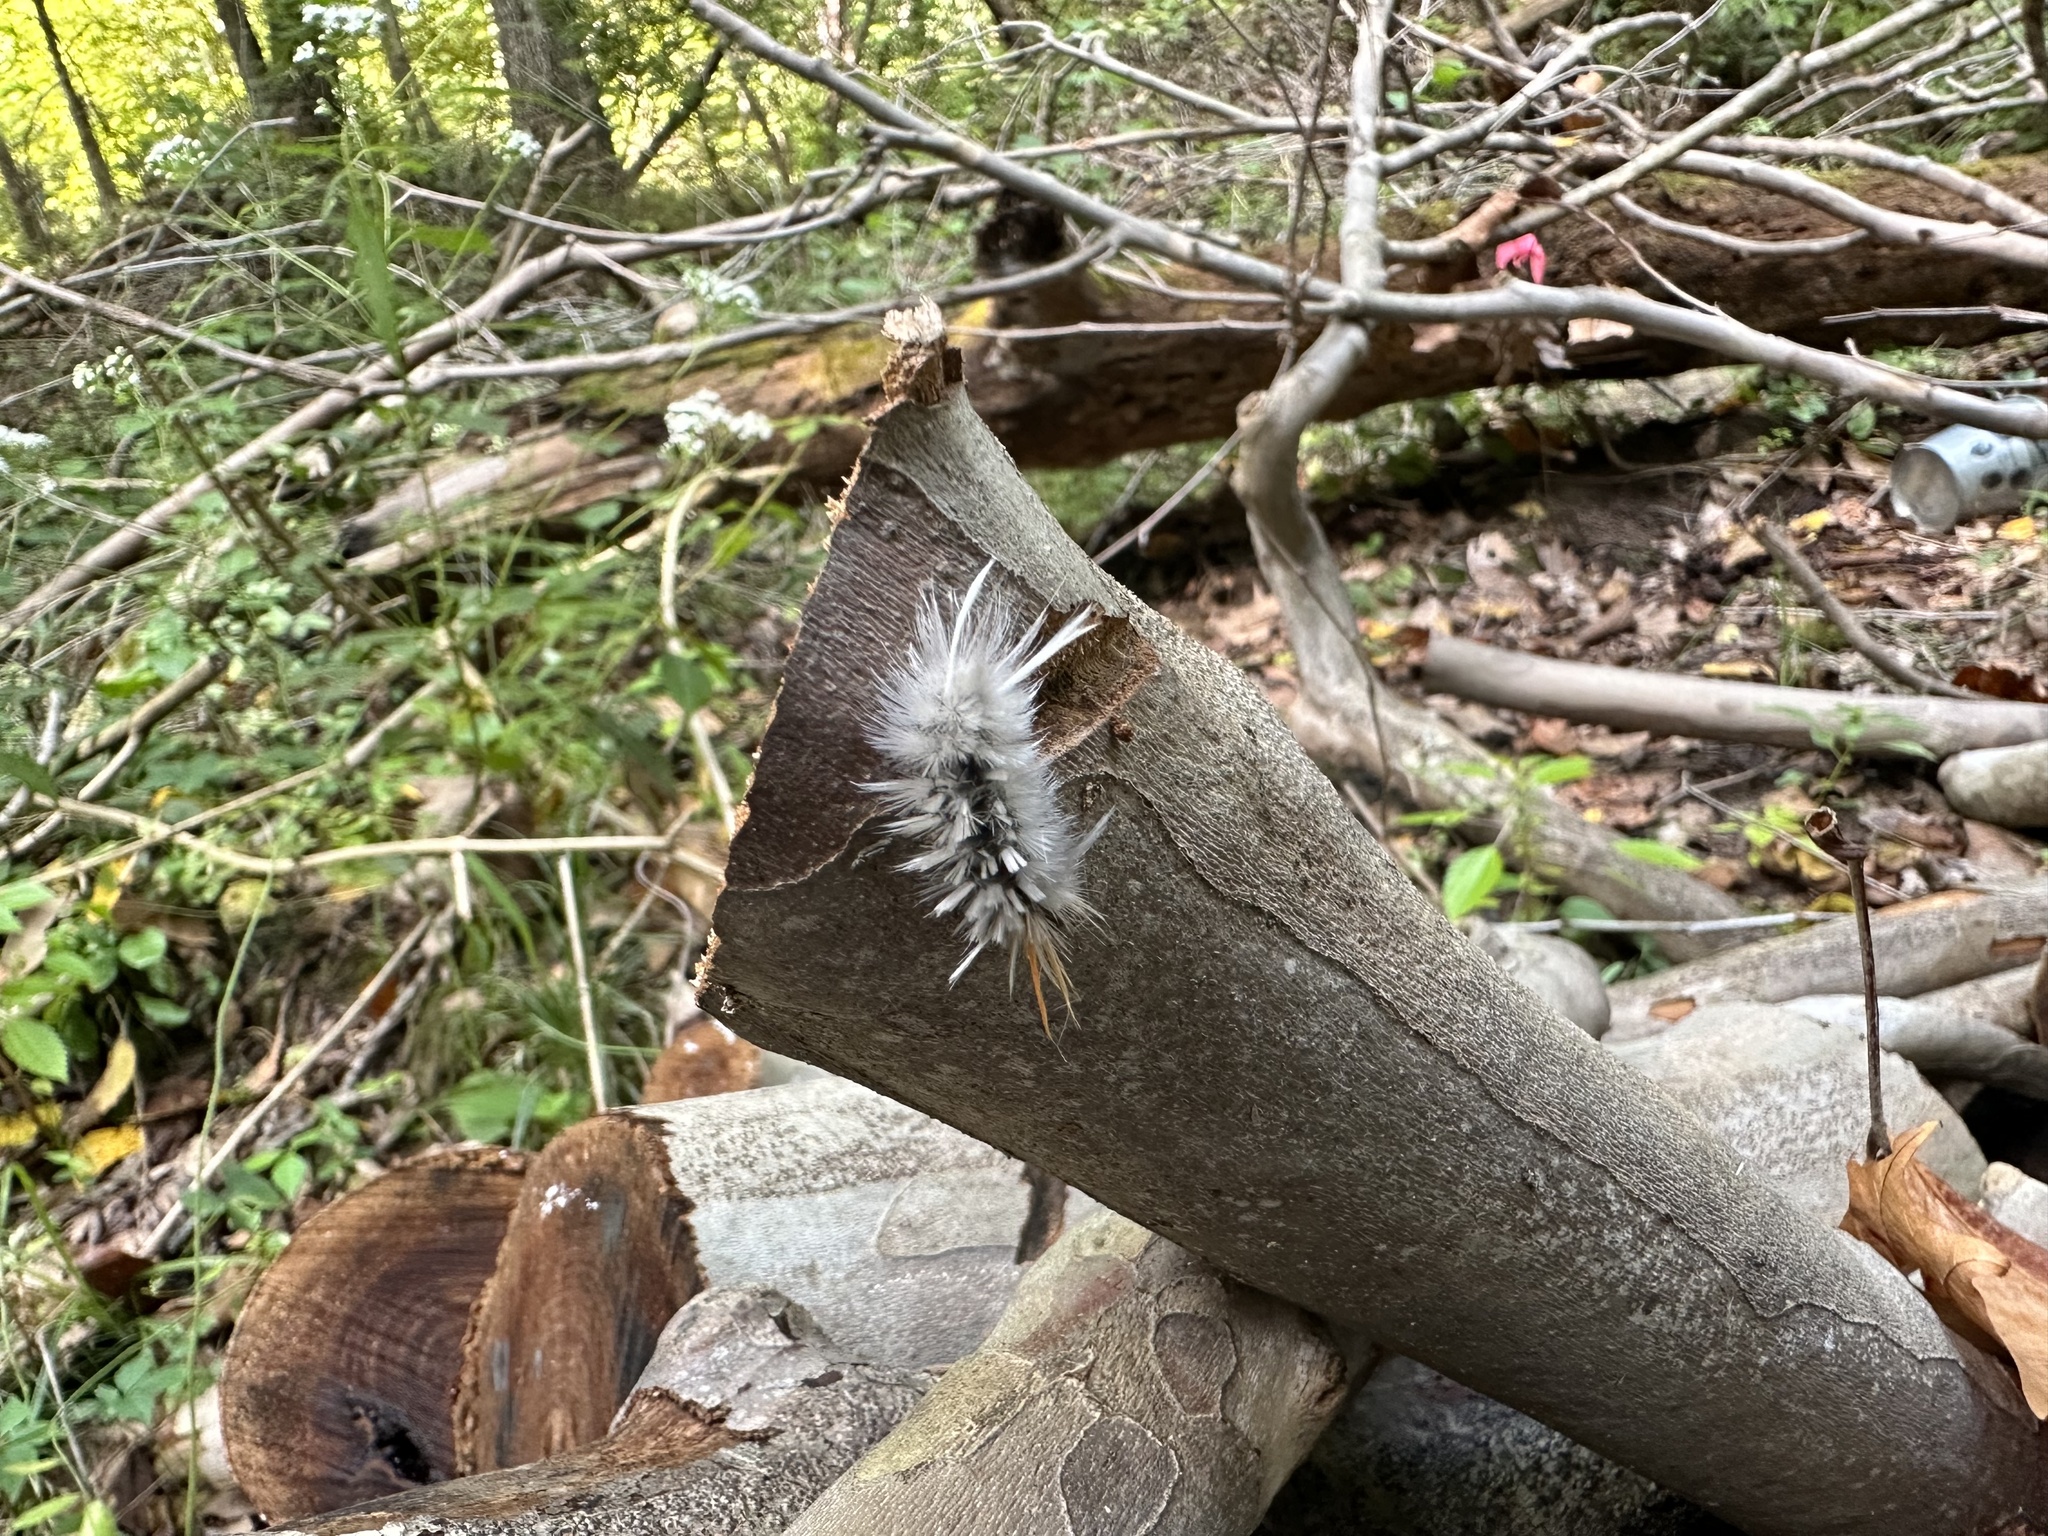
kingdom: Animalia
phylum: Arthropoda
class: Insecta
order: Lepidoptera
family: Erebidae
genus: Halysidota
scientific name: Halysidota harrisii
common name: Sycamore tussock moth
